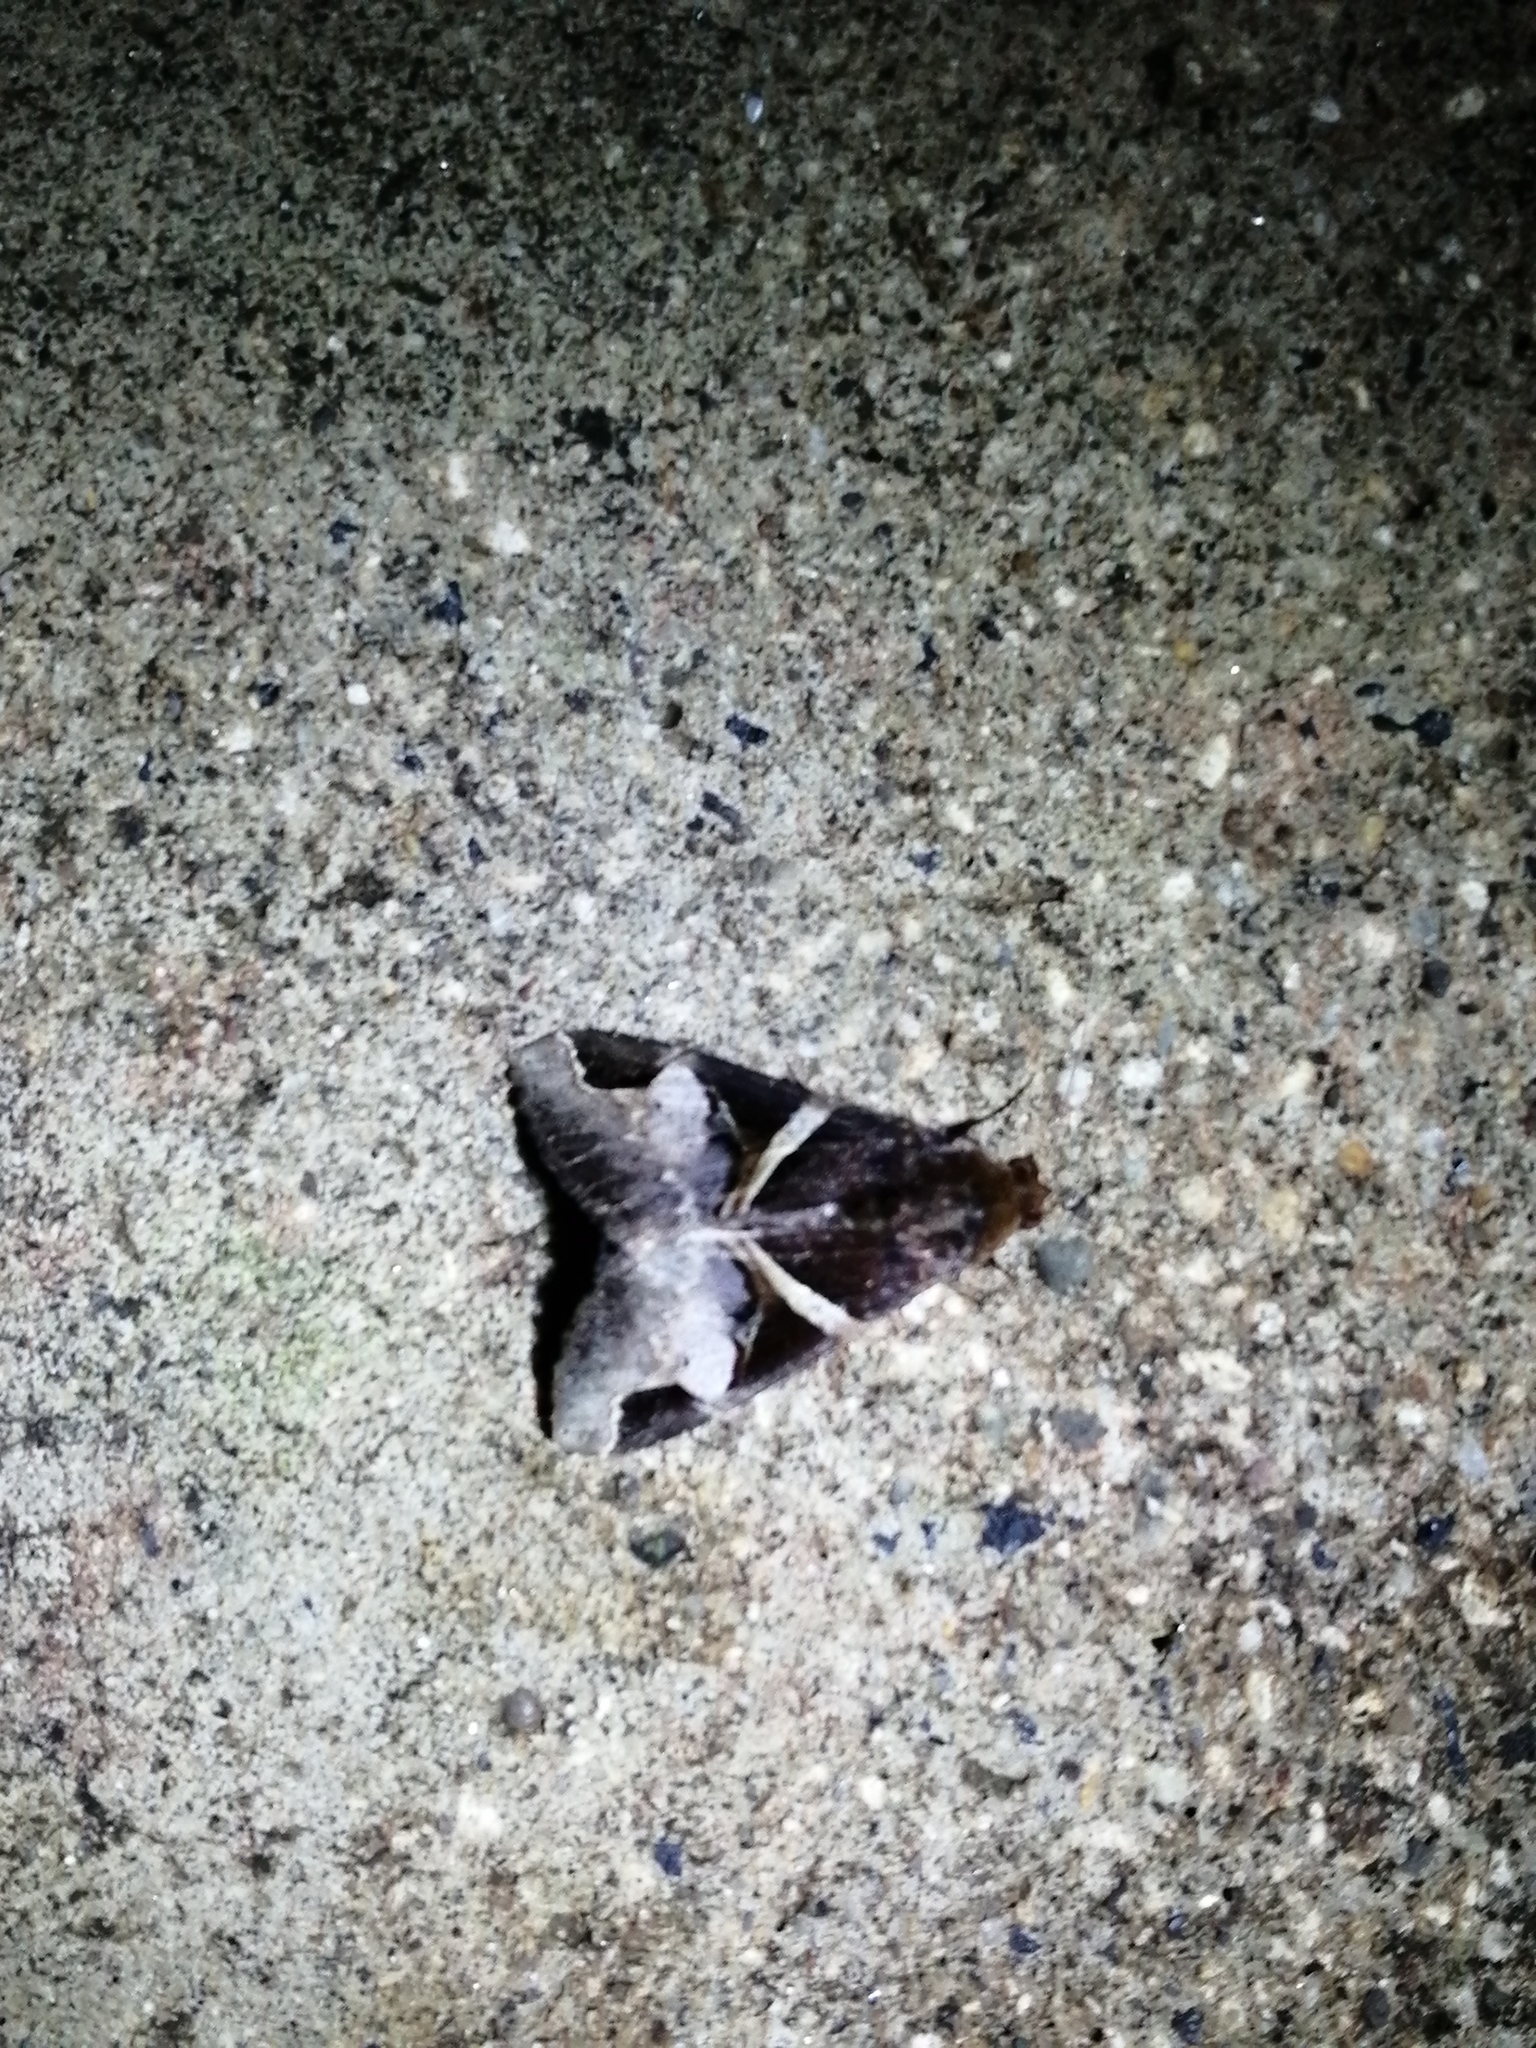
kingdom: Animalia
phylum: Arthropoda
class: Insecta
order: Lepidoptera
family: Erebidae
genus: Melipotis
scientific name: Melipotis fasciolaris
